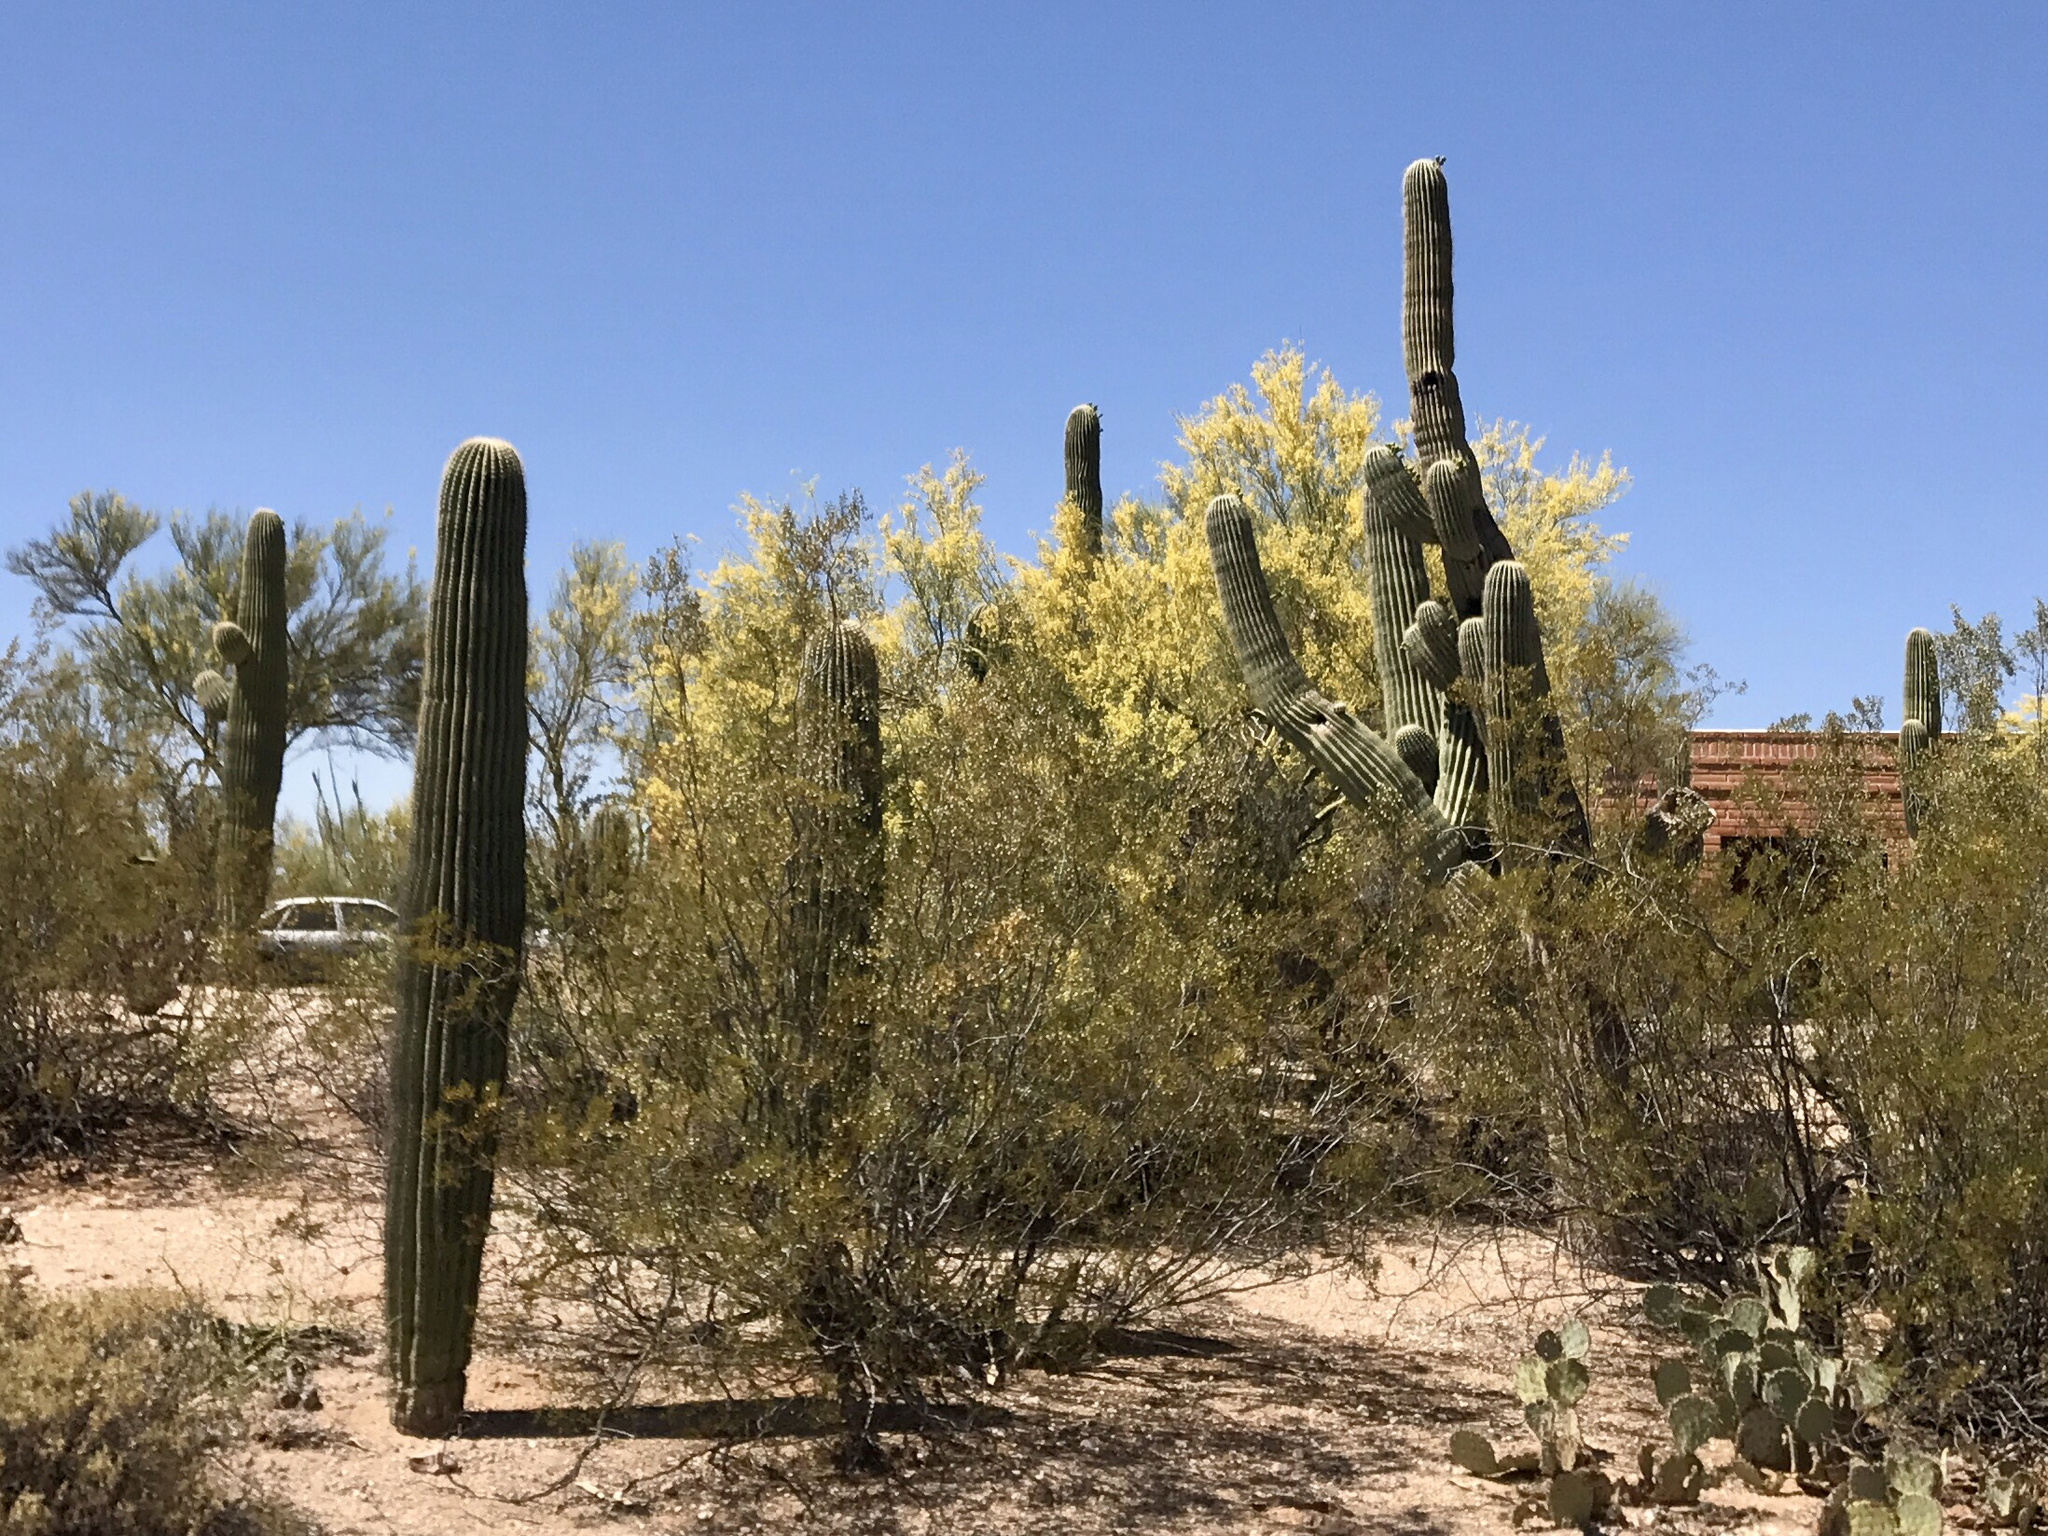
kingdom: Plantae
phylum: Tracheophyta
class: Magnoliopsida
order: Caryophyllales
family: Cactaceae
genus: Carnegiea
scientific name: Carnegiea gigantea
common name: Saguaro
